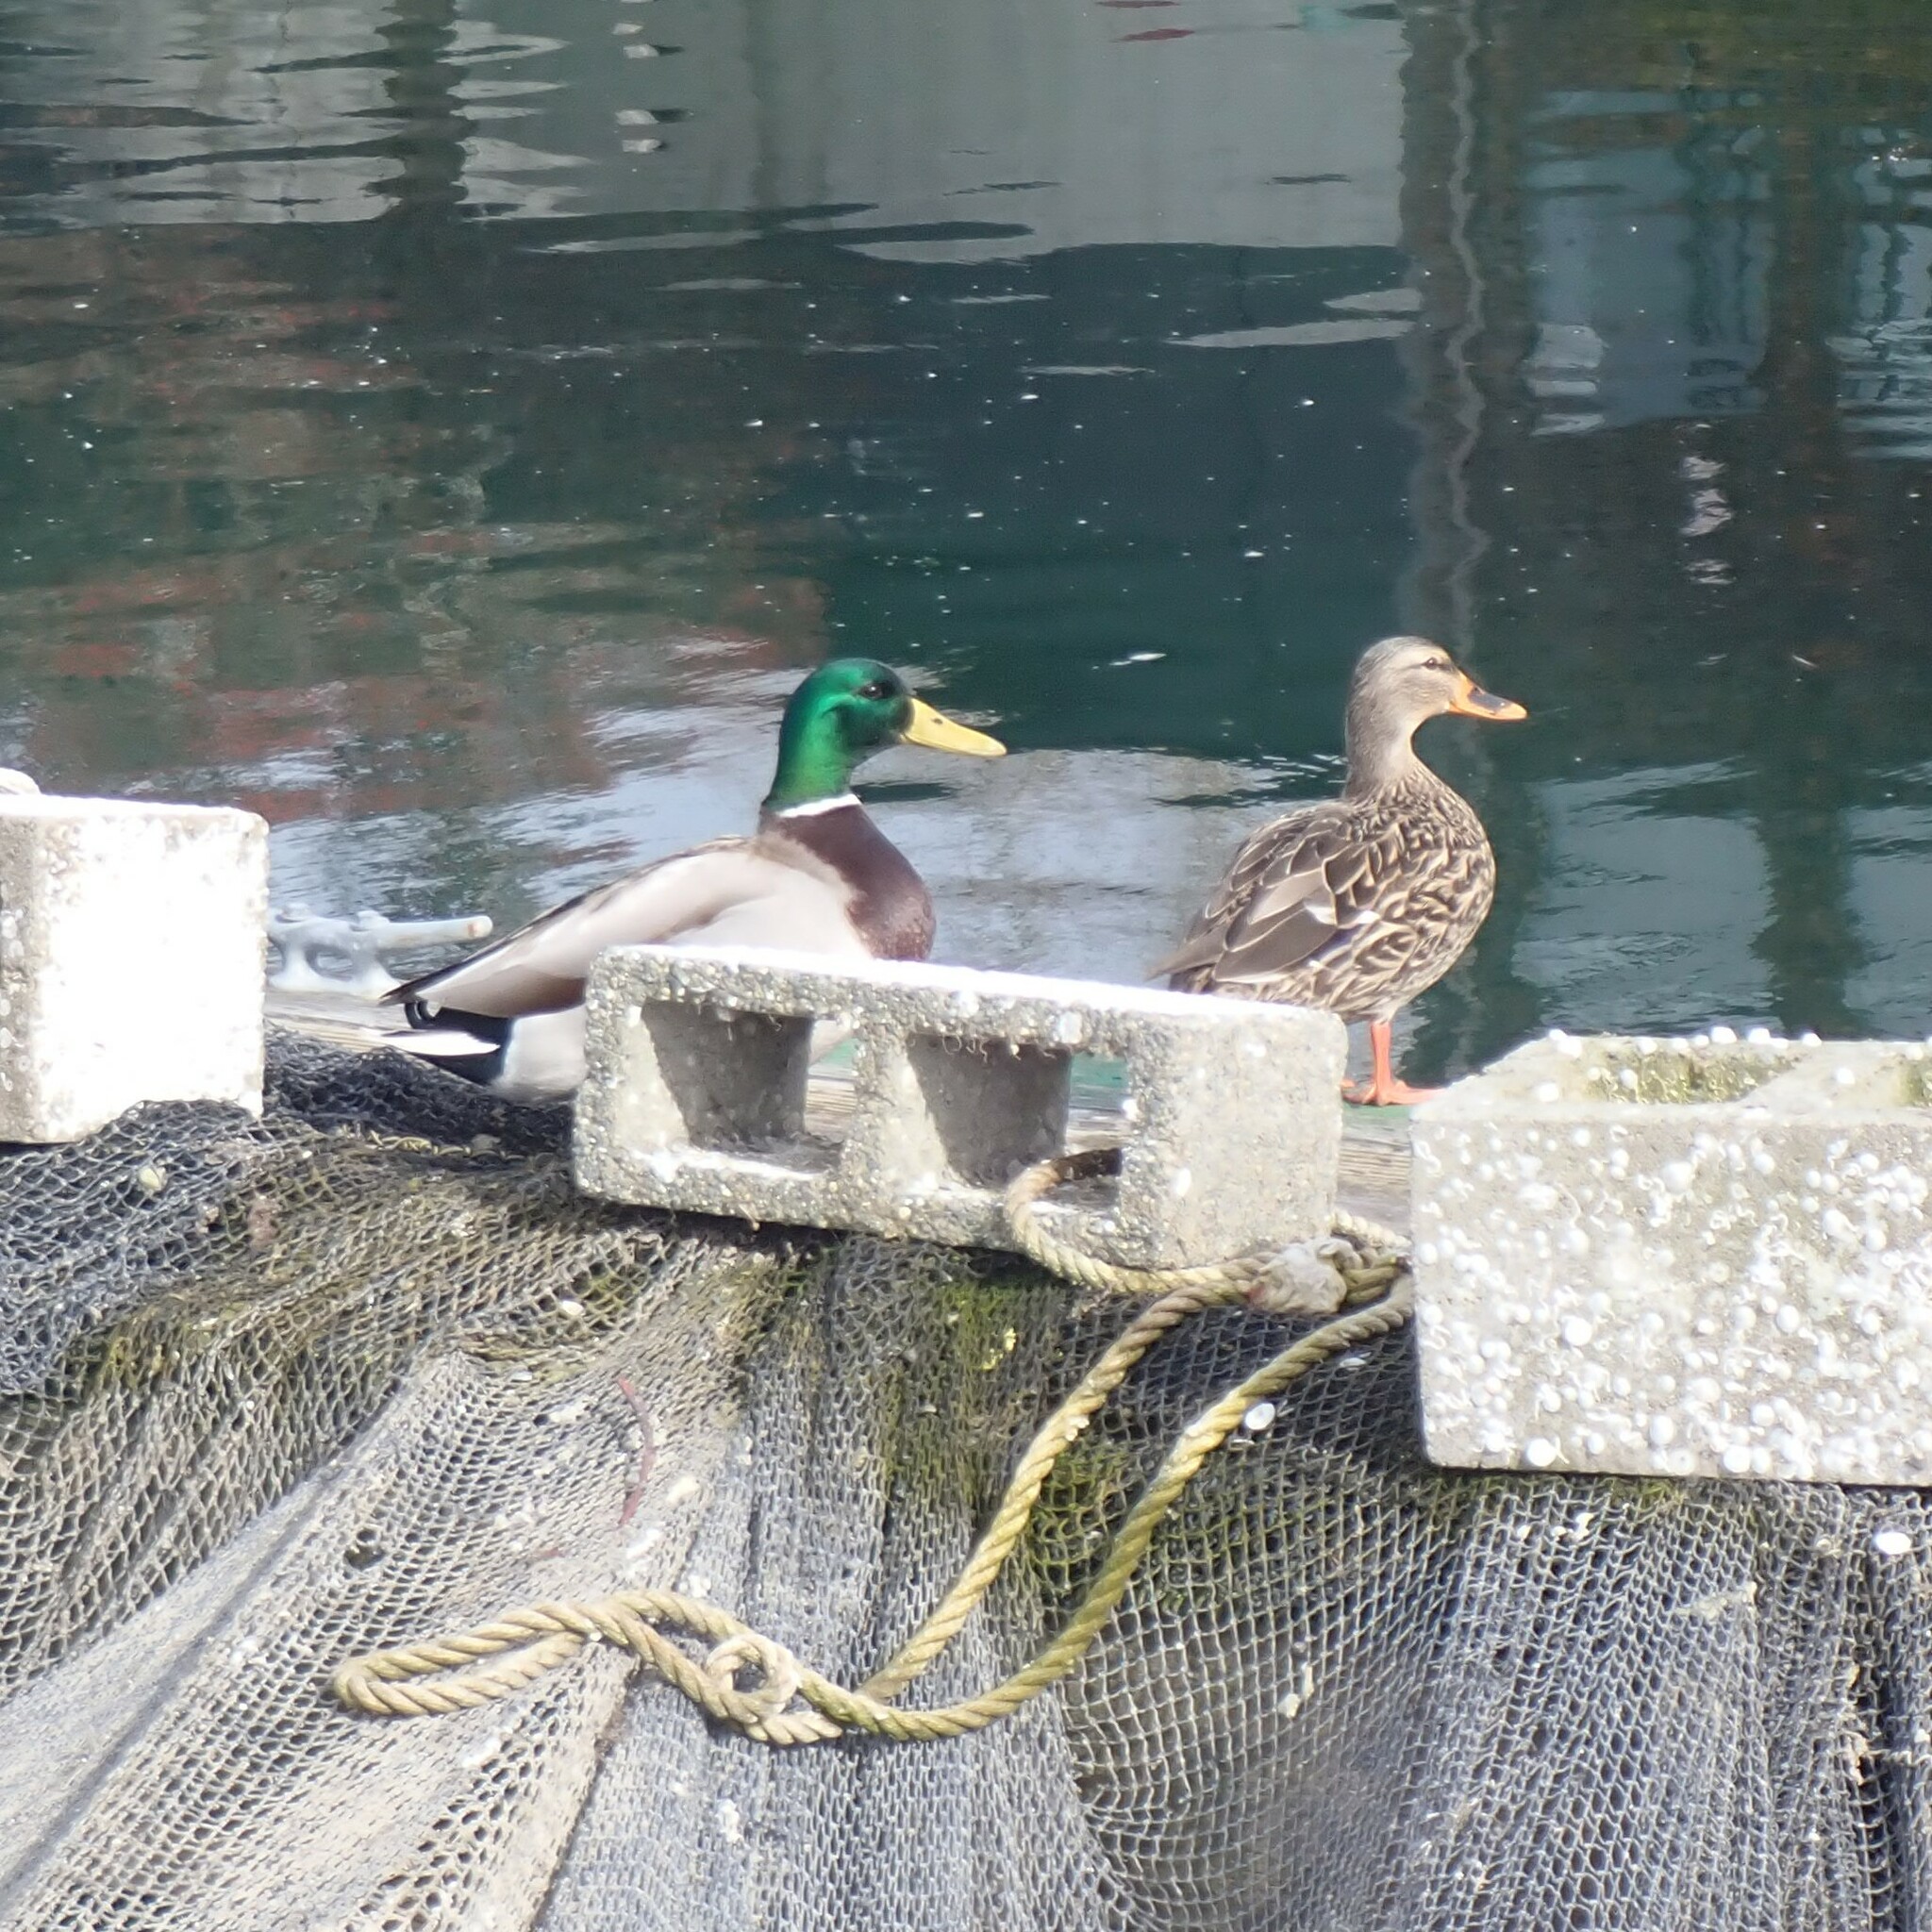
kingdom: Animalia
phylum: Chordata
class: Aves
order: Anseriformes
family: Anatidae
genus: Anas
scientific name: Anas platyrhynchos
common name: Mallard
